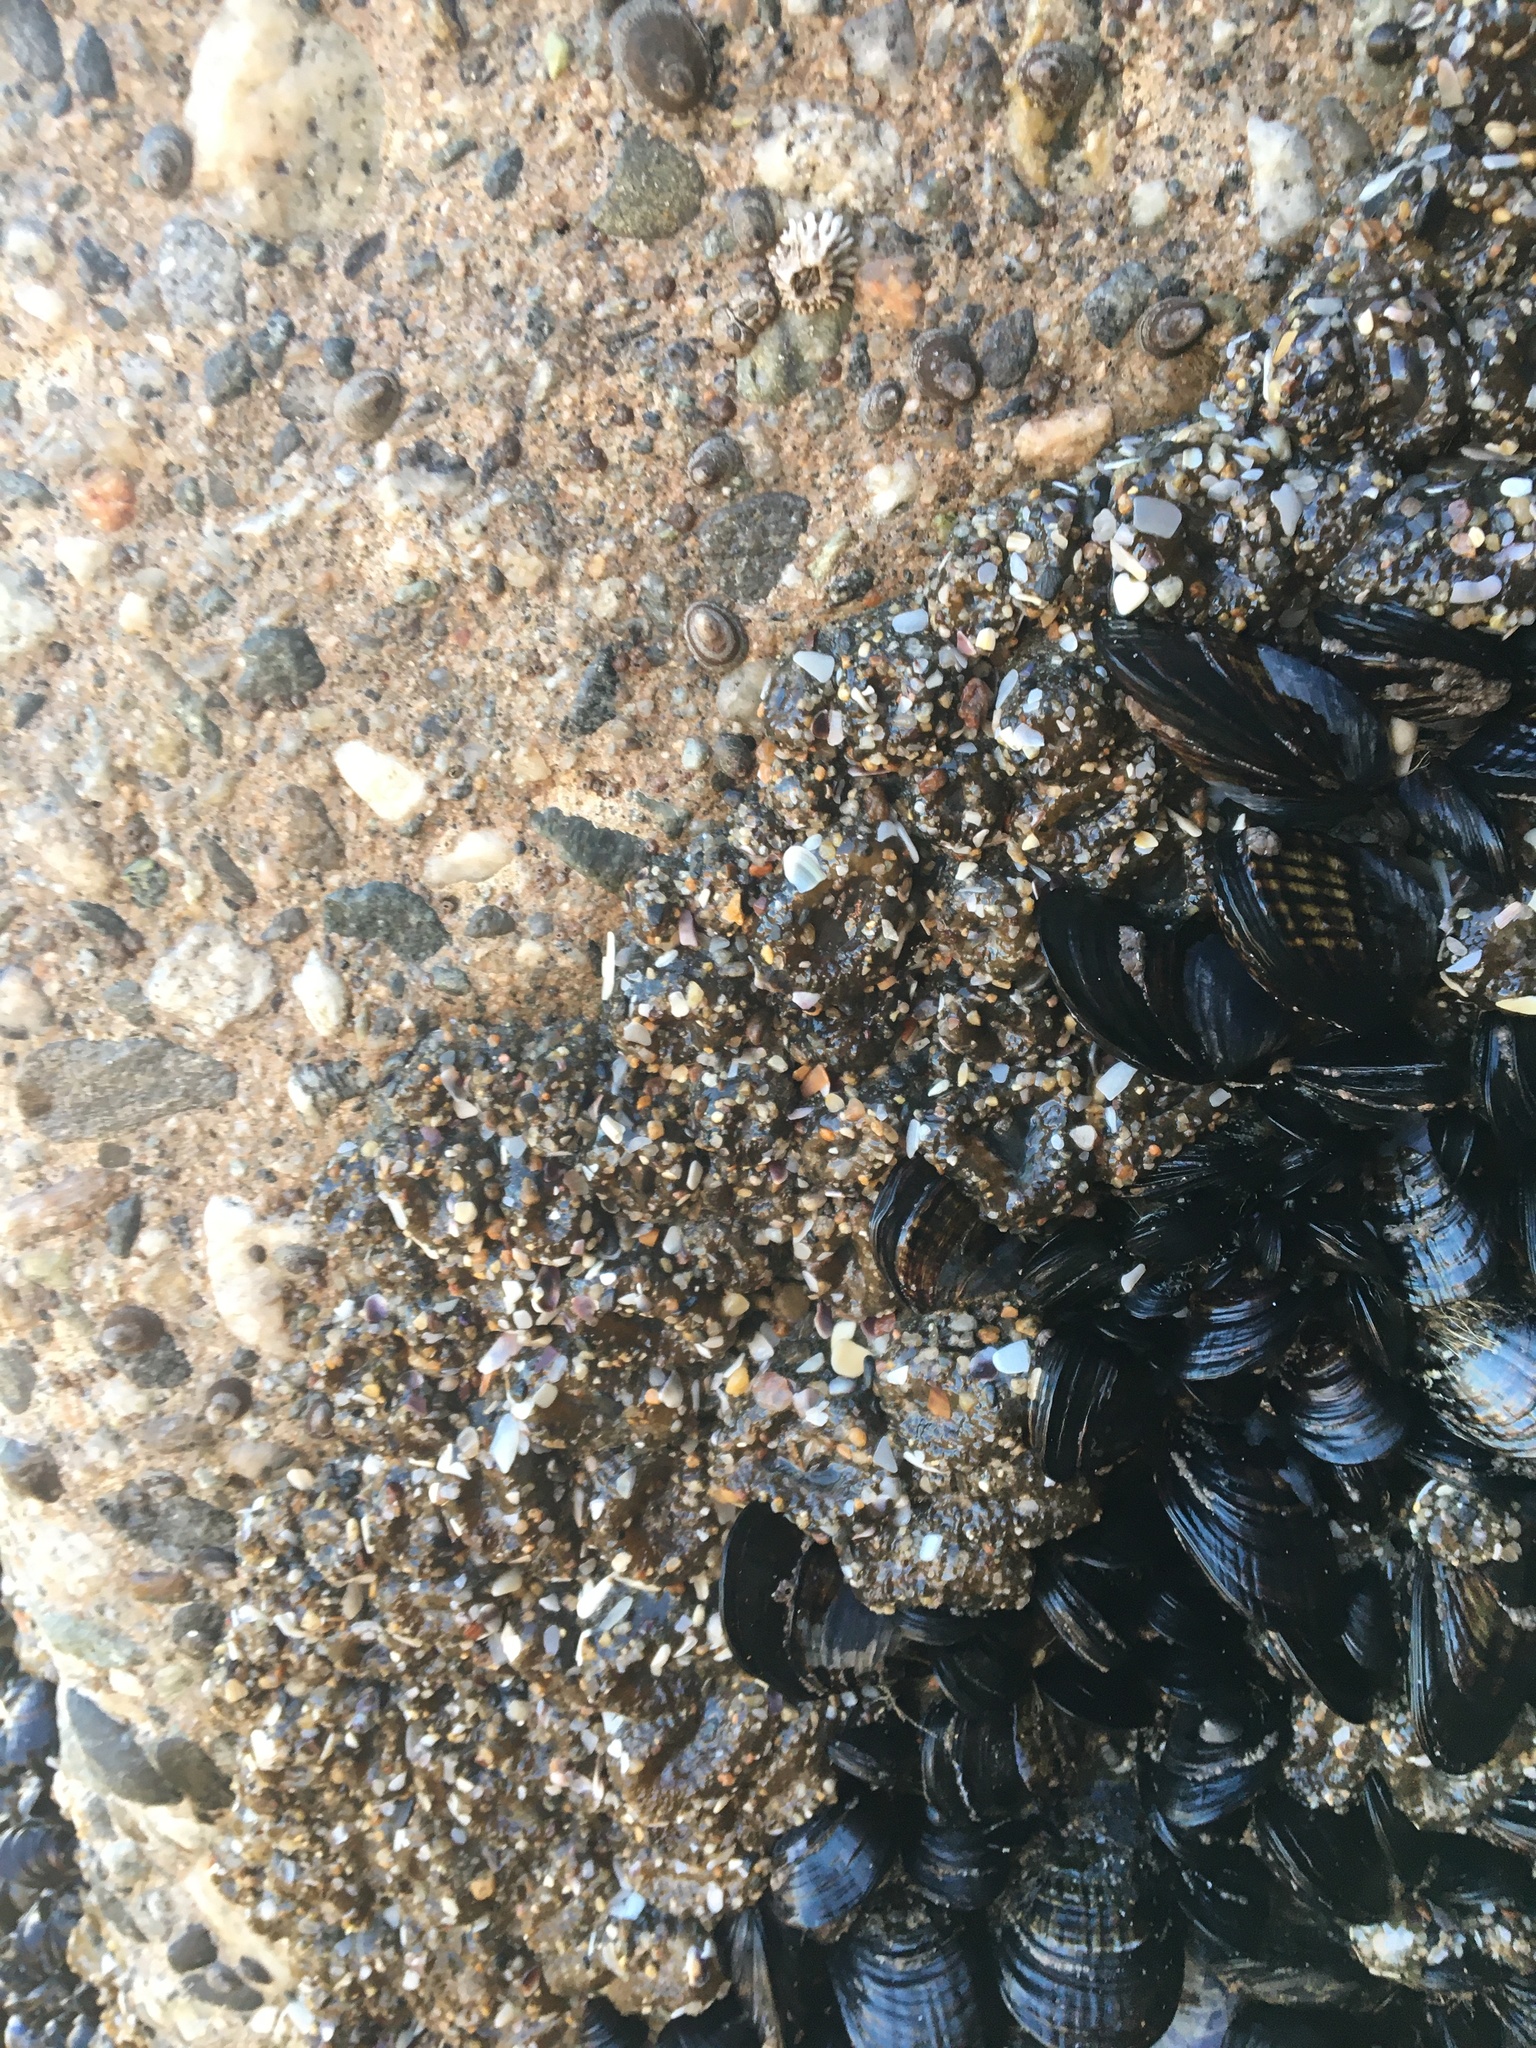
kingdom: Animalia
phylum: Cnidaria
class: Anthozoa
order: Actiniaria
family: Actiniidae
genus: Anthopleura
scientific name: Anthopleura elegantissima
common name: Clonal anemone
